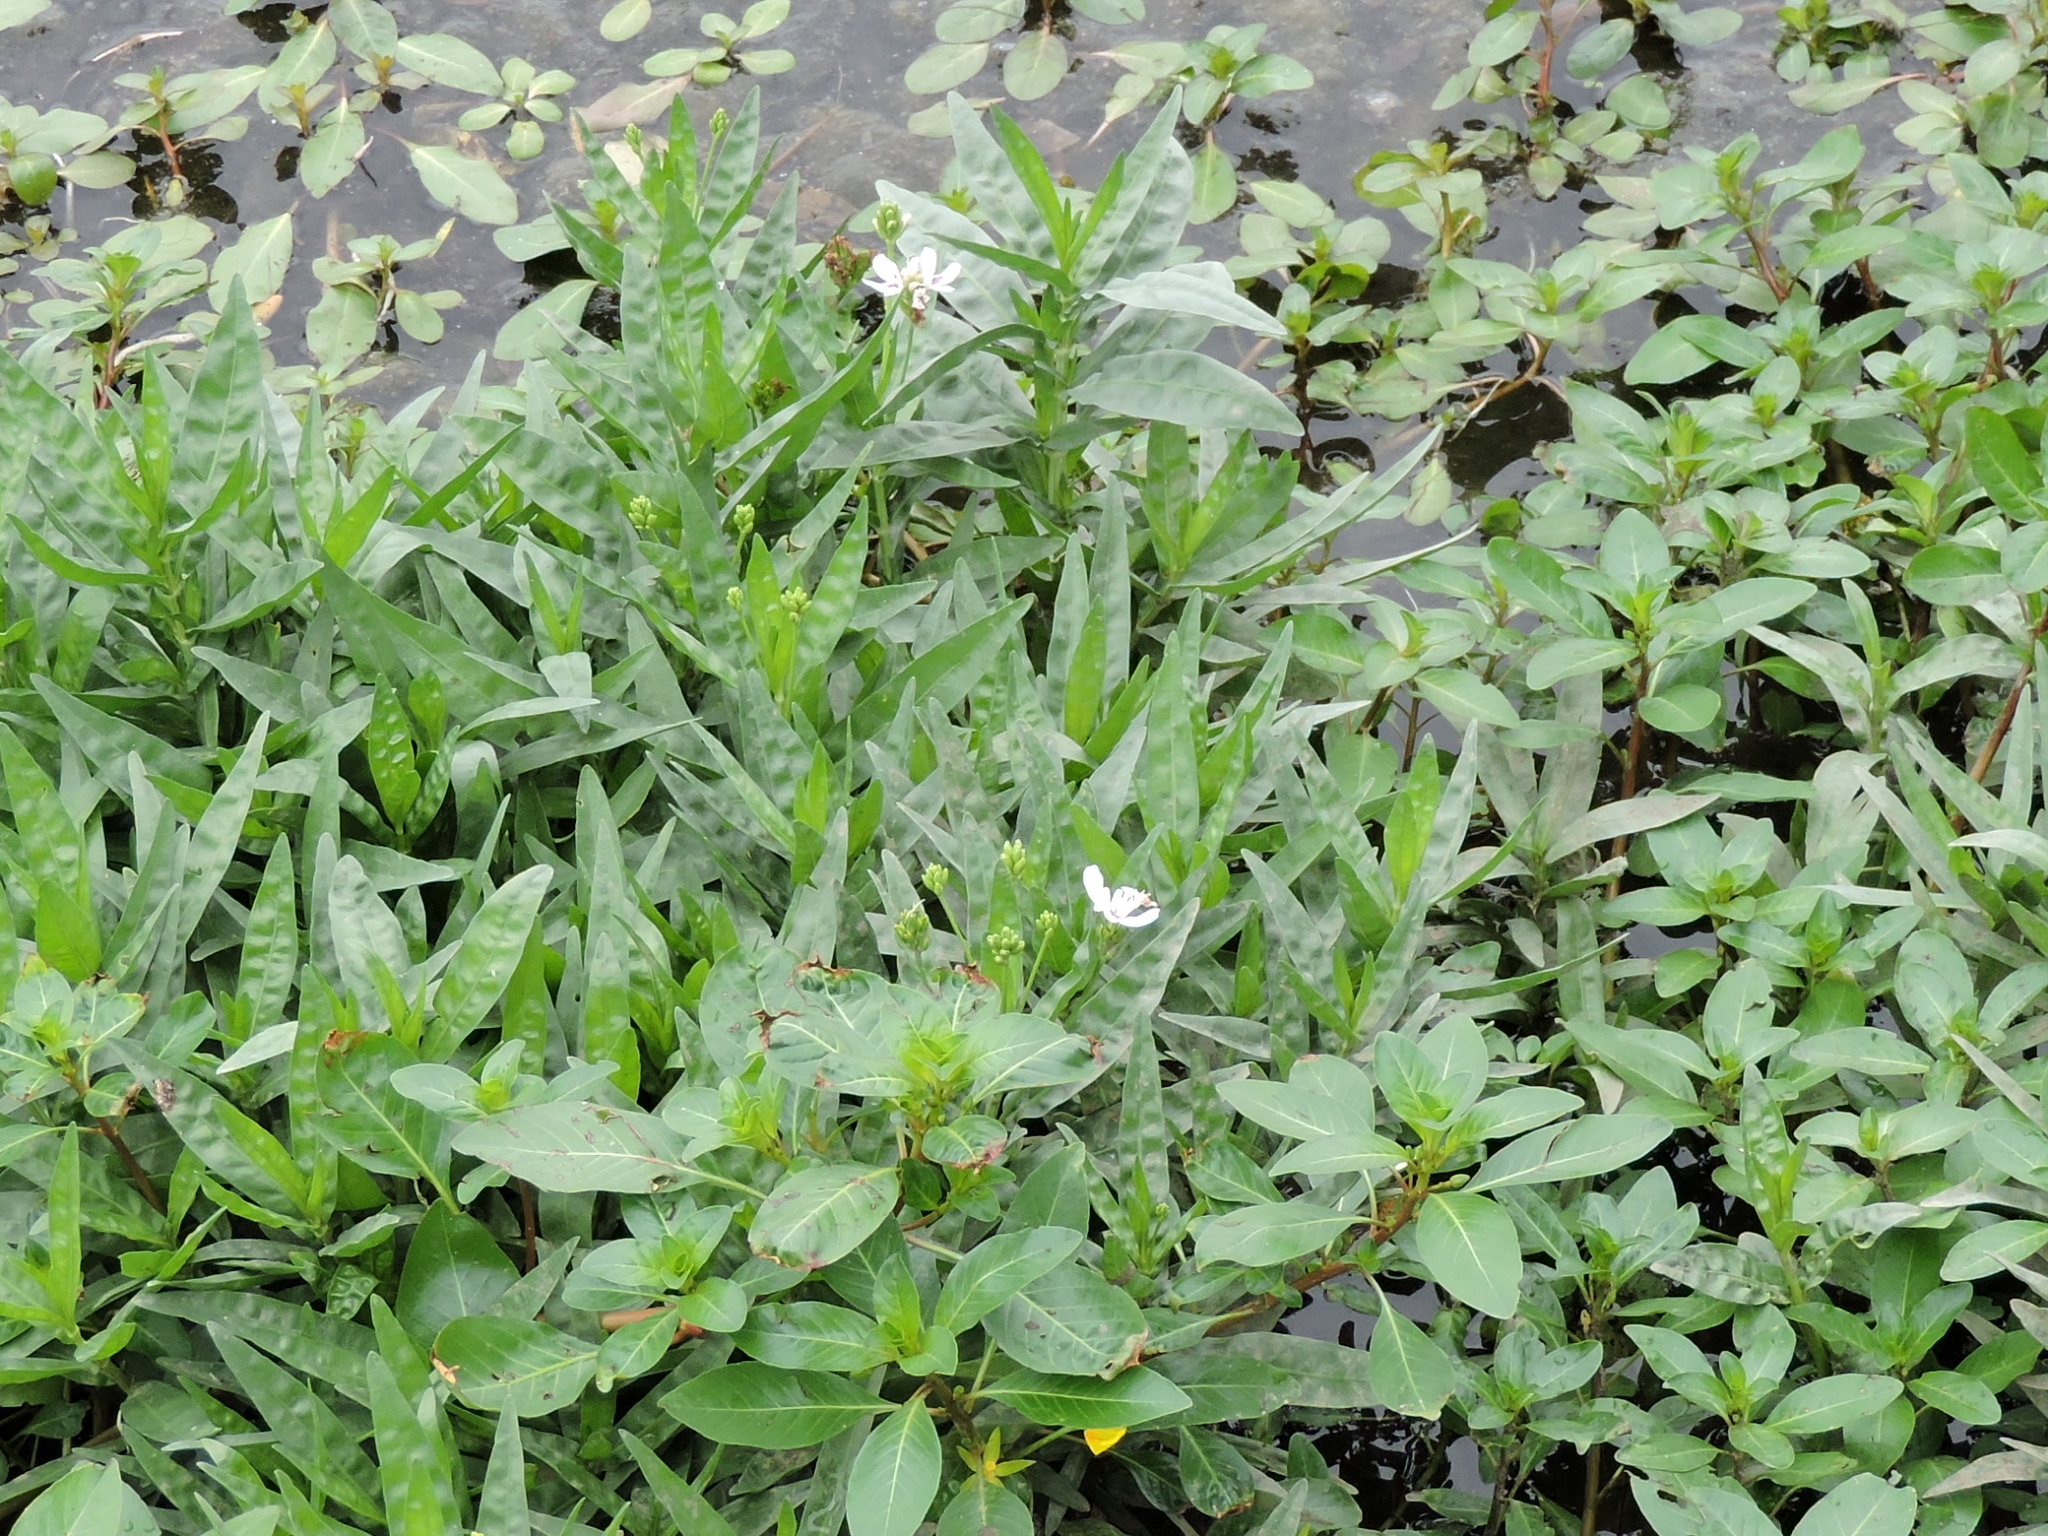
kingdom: Plantae
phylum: Tracheophyta
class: Magnoliopsida
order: Lamiales
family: Acanthaceae
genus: Dianthera
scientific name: Dianthera americana
